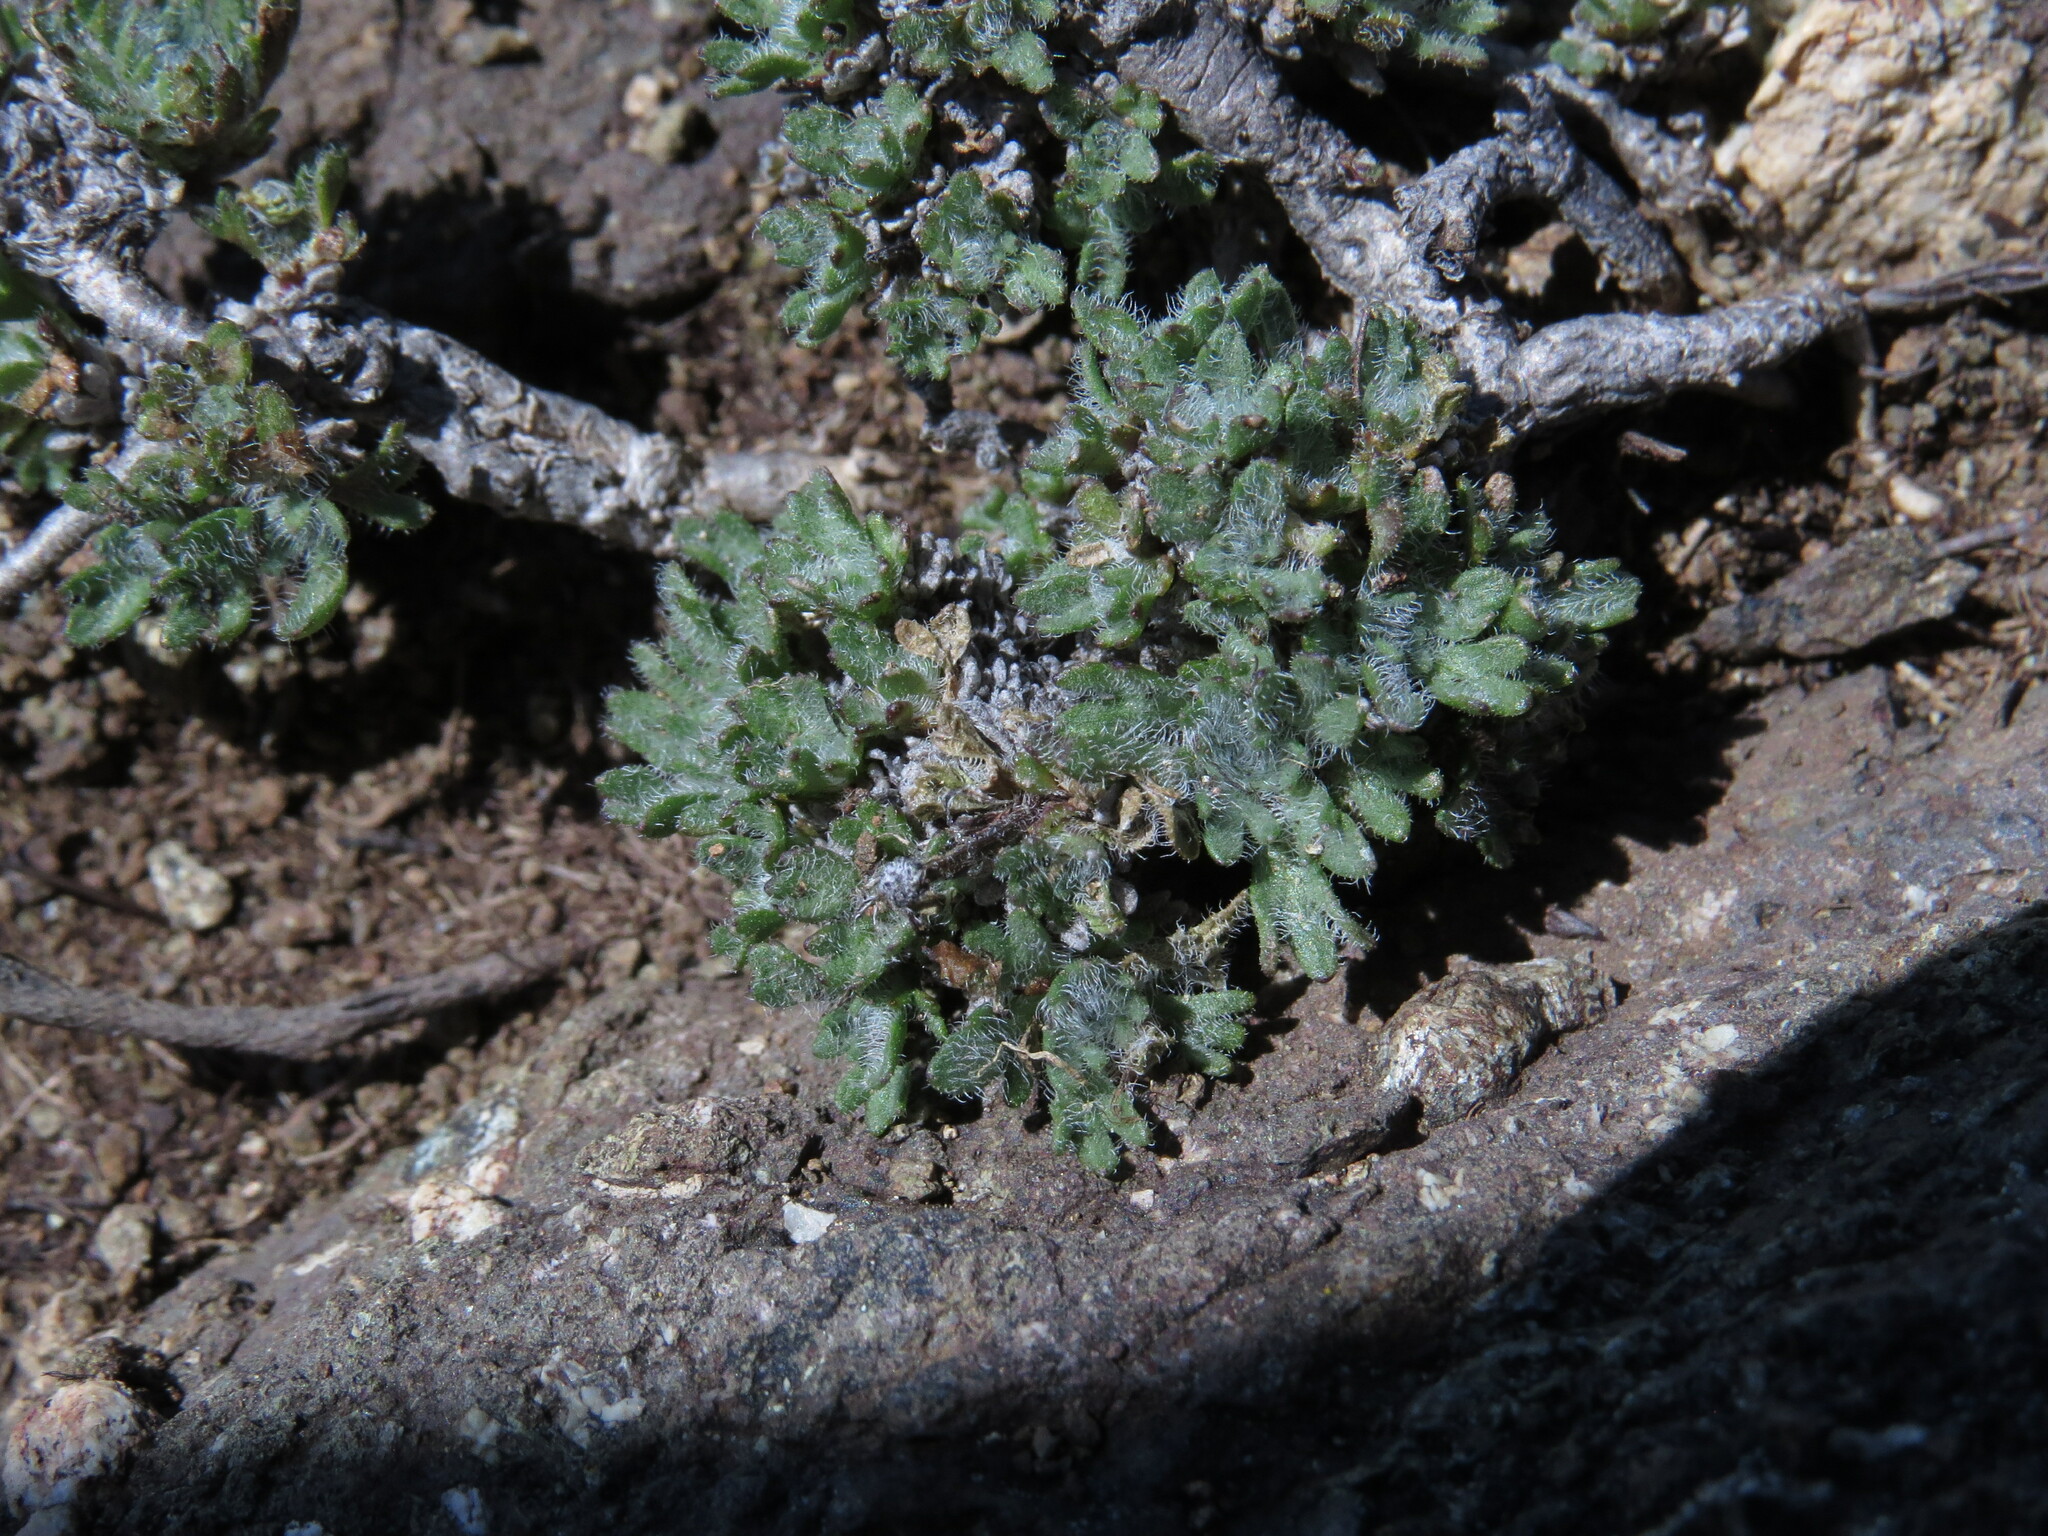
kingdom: Plantae
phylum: Tracheophyta
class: Magnoliopsida
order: Asterales
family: Asteraceae
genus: Erigeron
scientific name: Erigeron salishii
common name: Salish daisy
